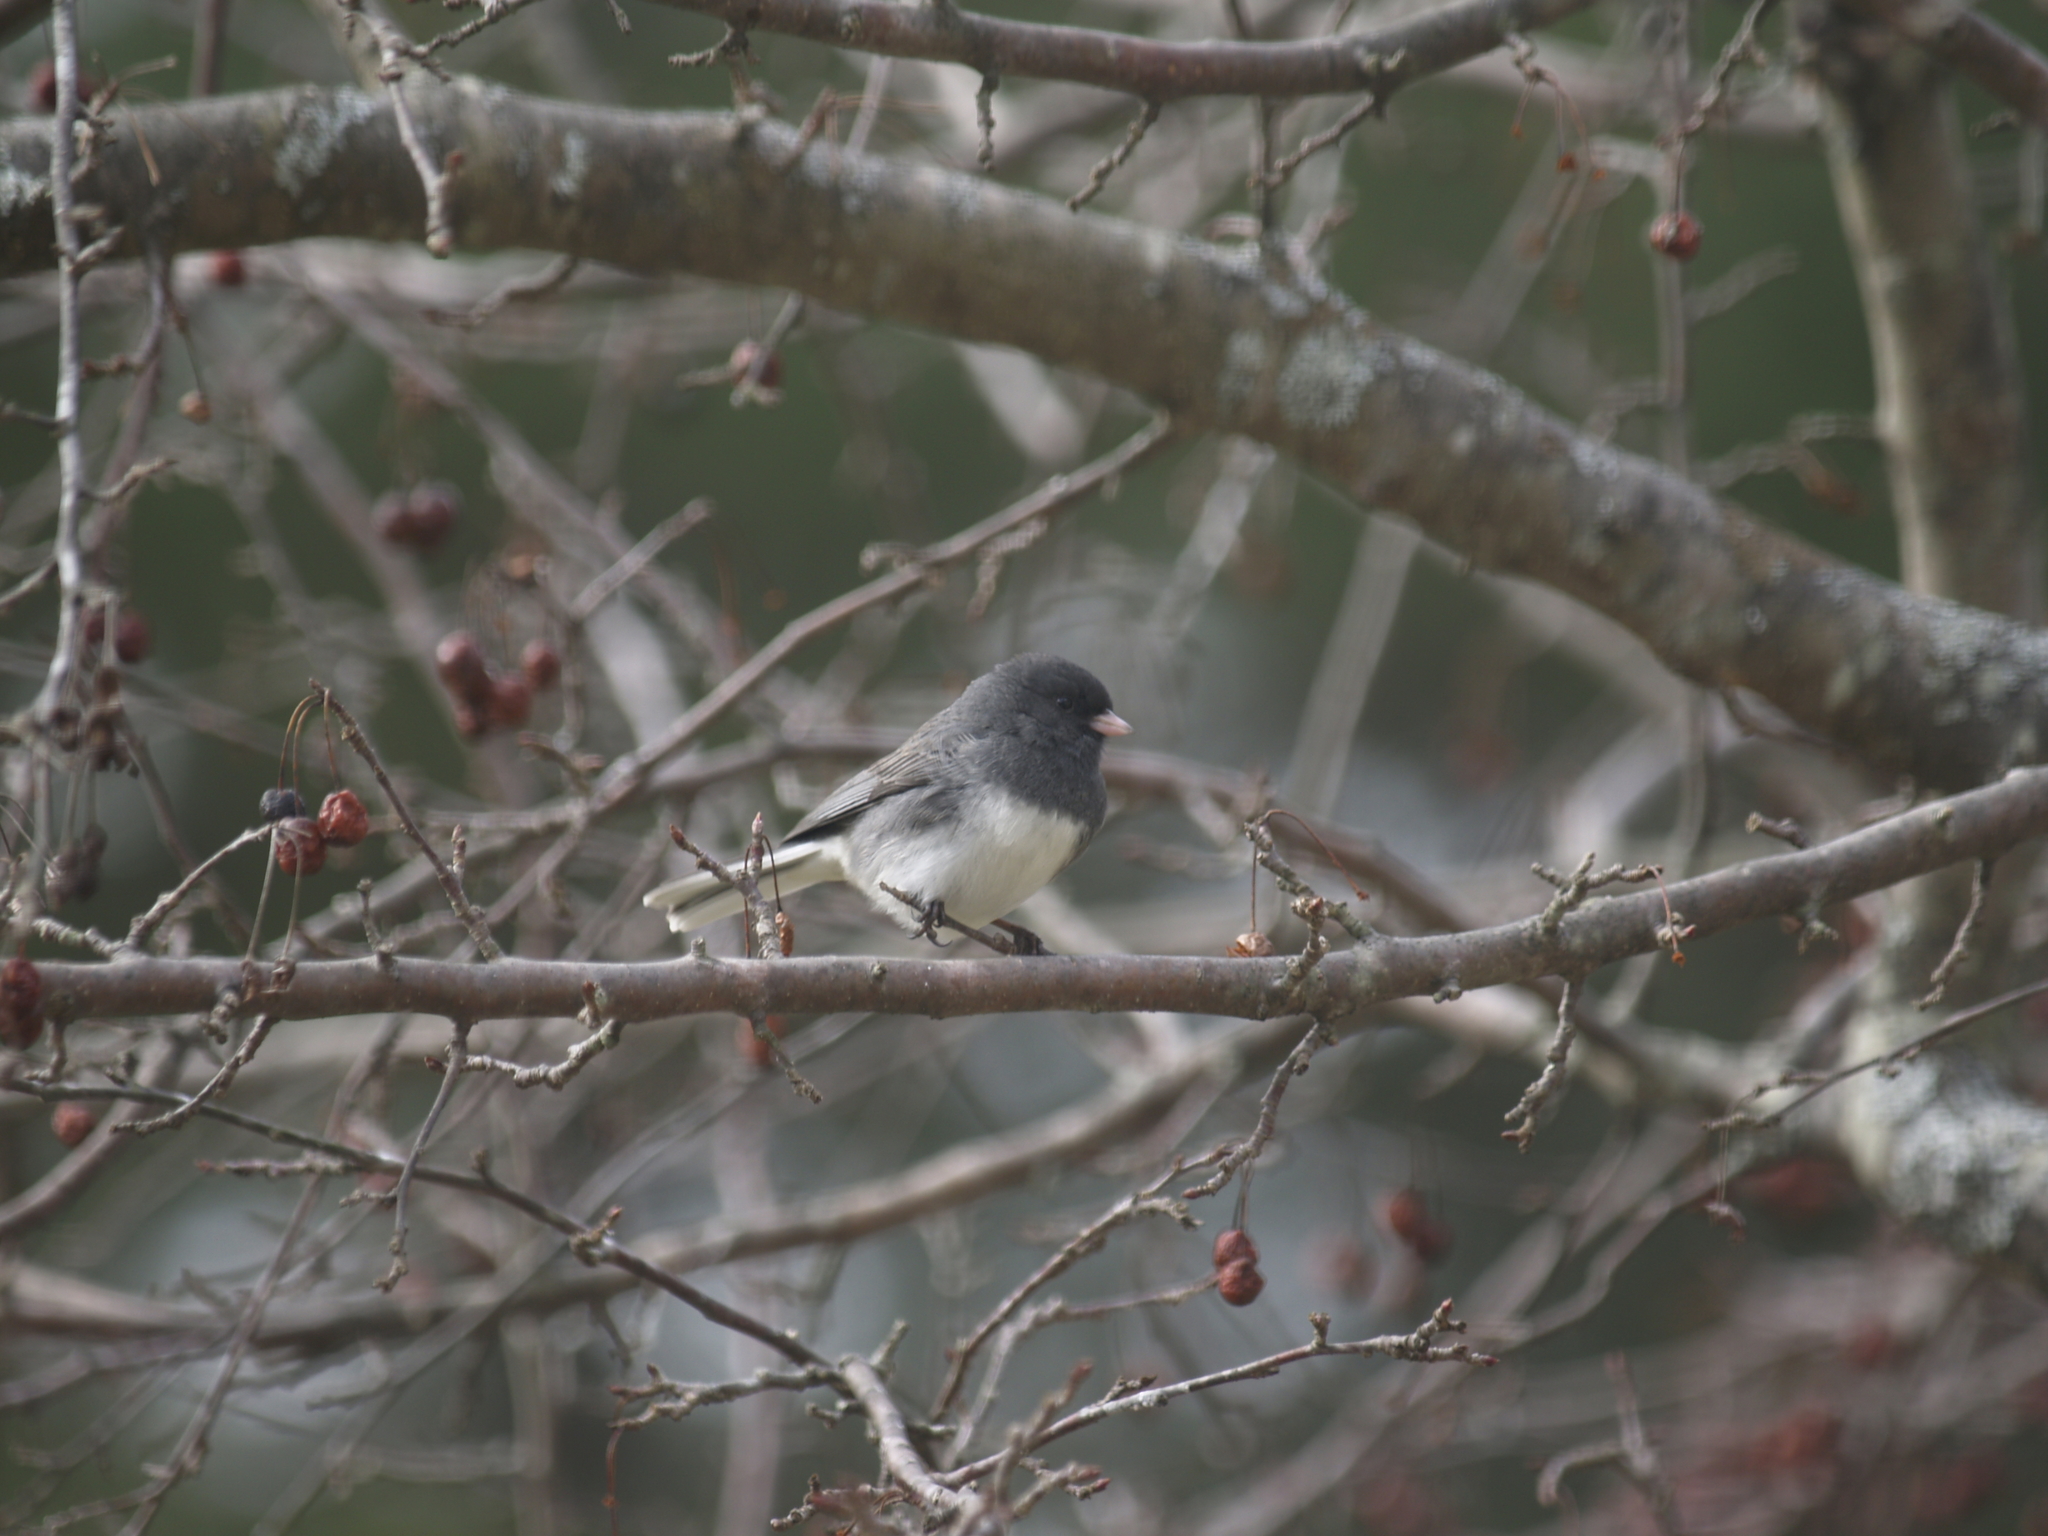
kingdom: Animalia
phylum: Chordata
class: Aves
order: Passeriformes
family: Passerellidae
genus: Junco
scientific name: Junco hyemalis
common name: Dark-eyed junco
